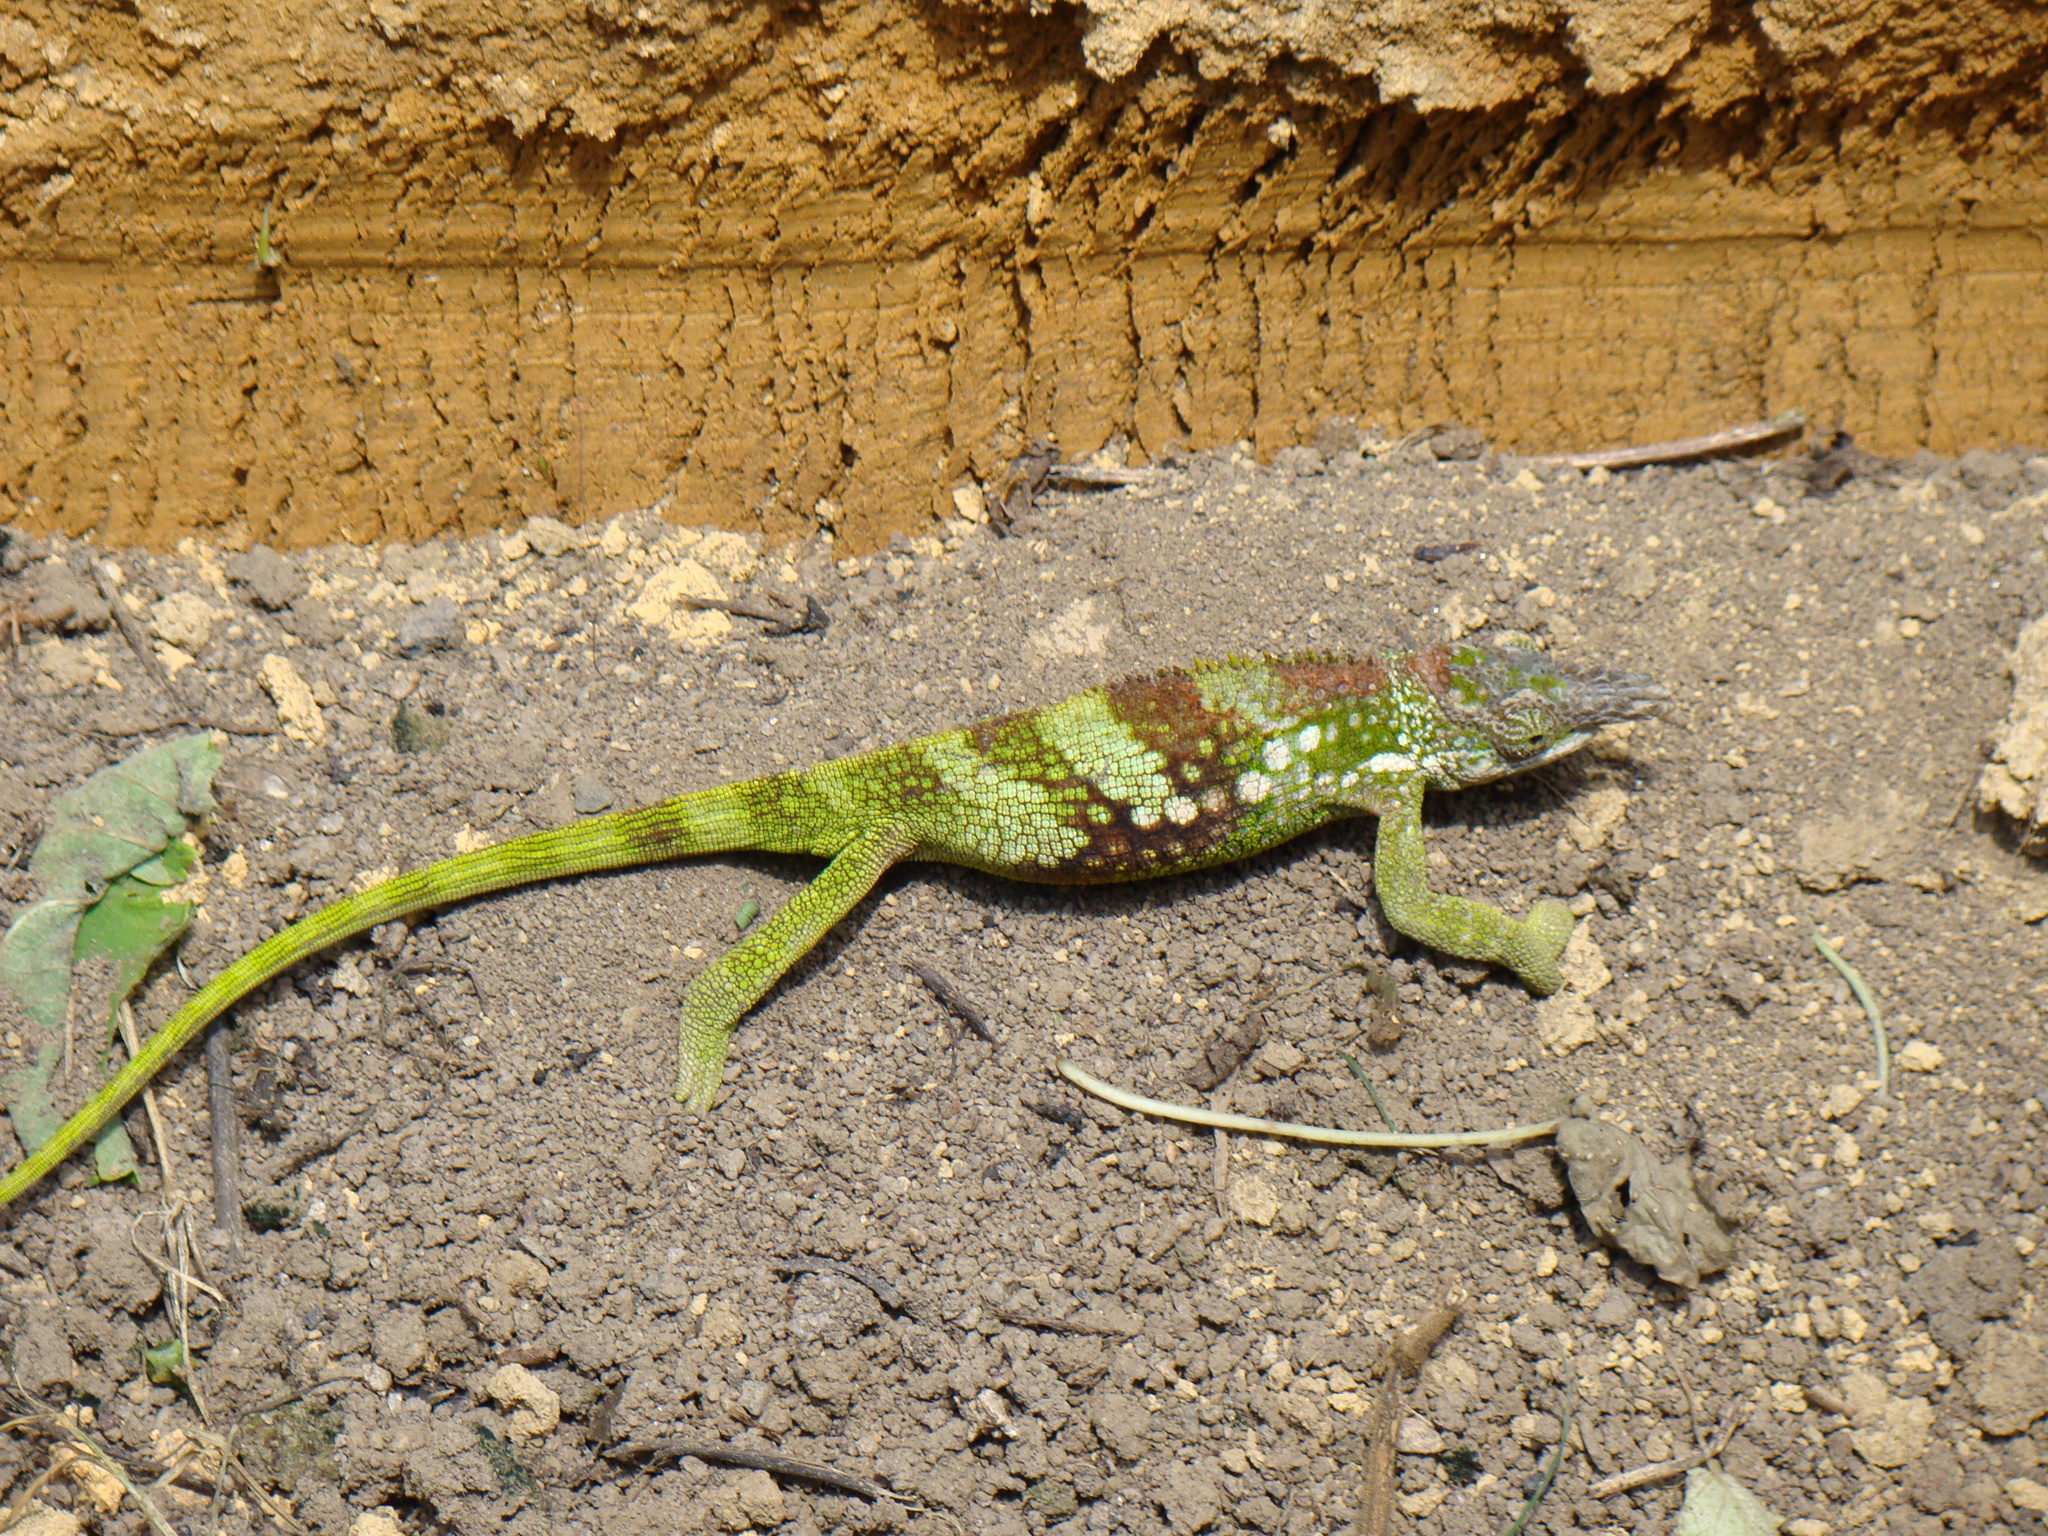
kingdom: Animalia
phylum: Chordata
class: Squamata
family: Chamaeleonidae
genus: Kinyongia
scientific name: Kinyongia multituberculata
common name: West usambara blade-horned chameleon
